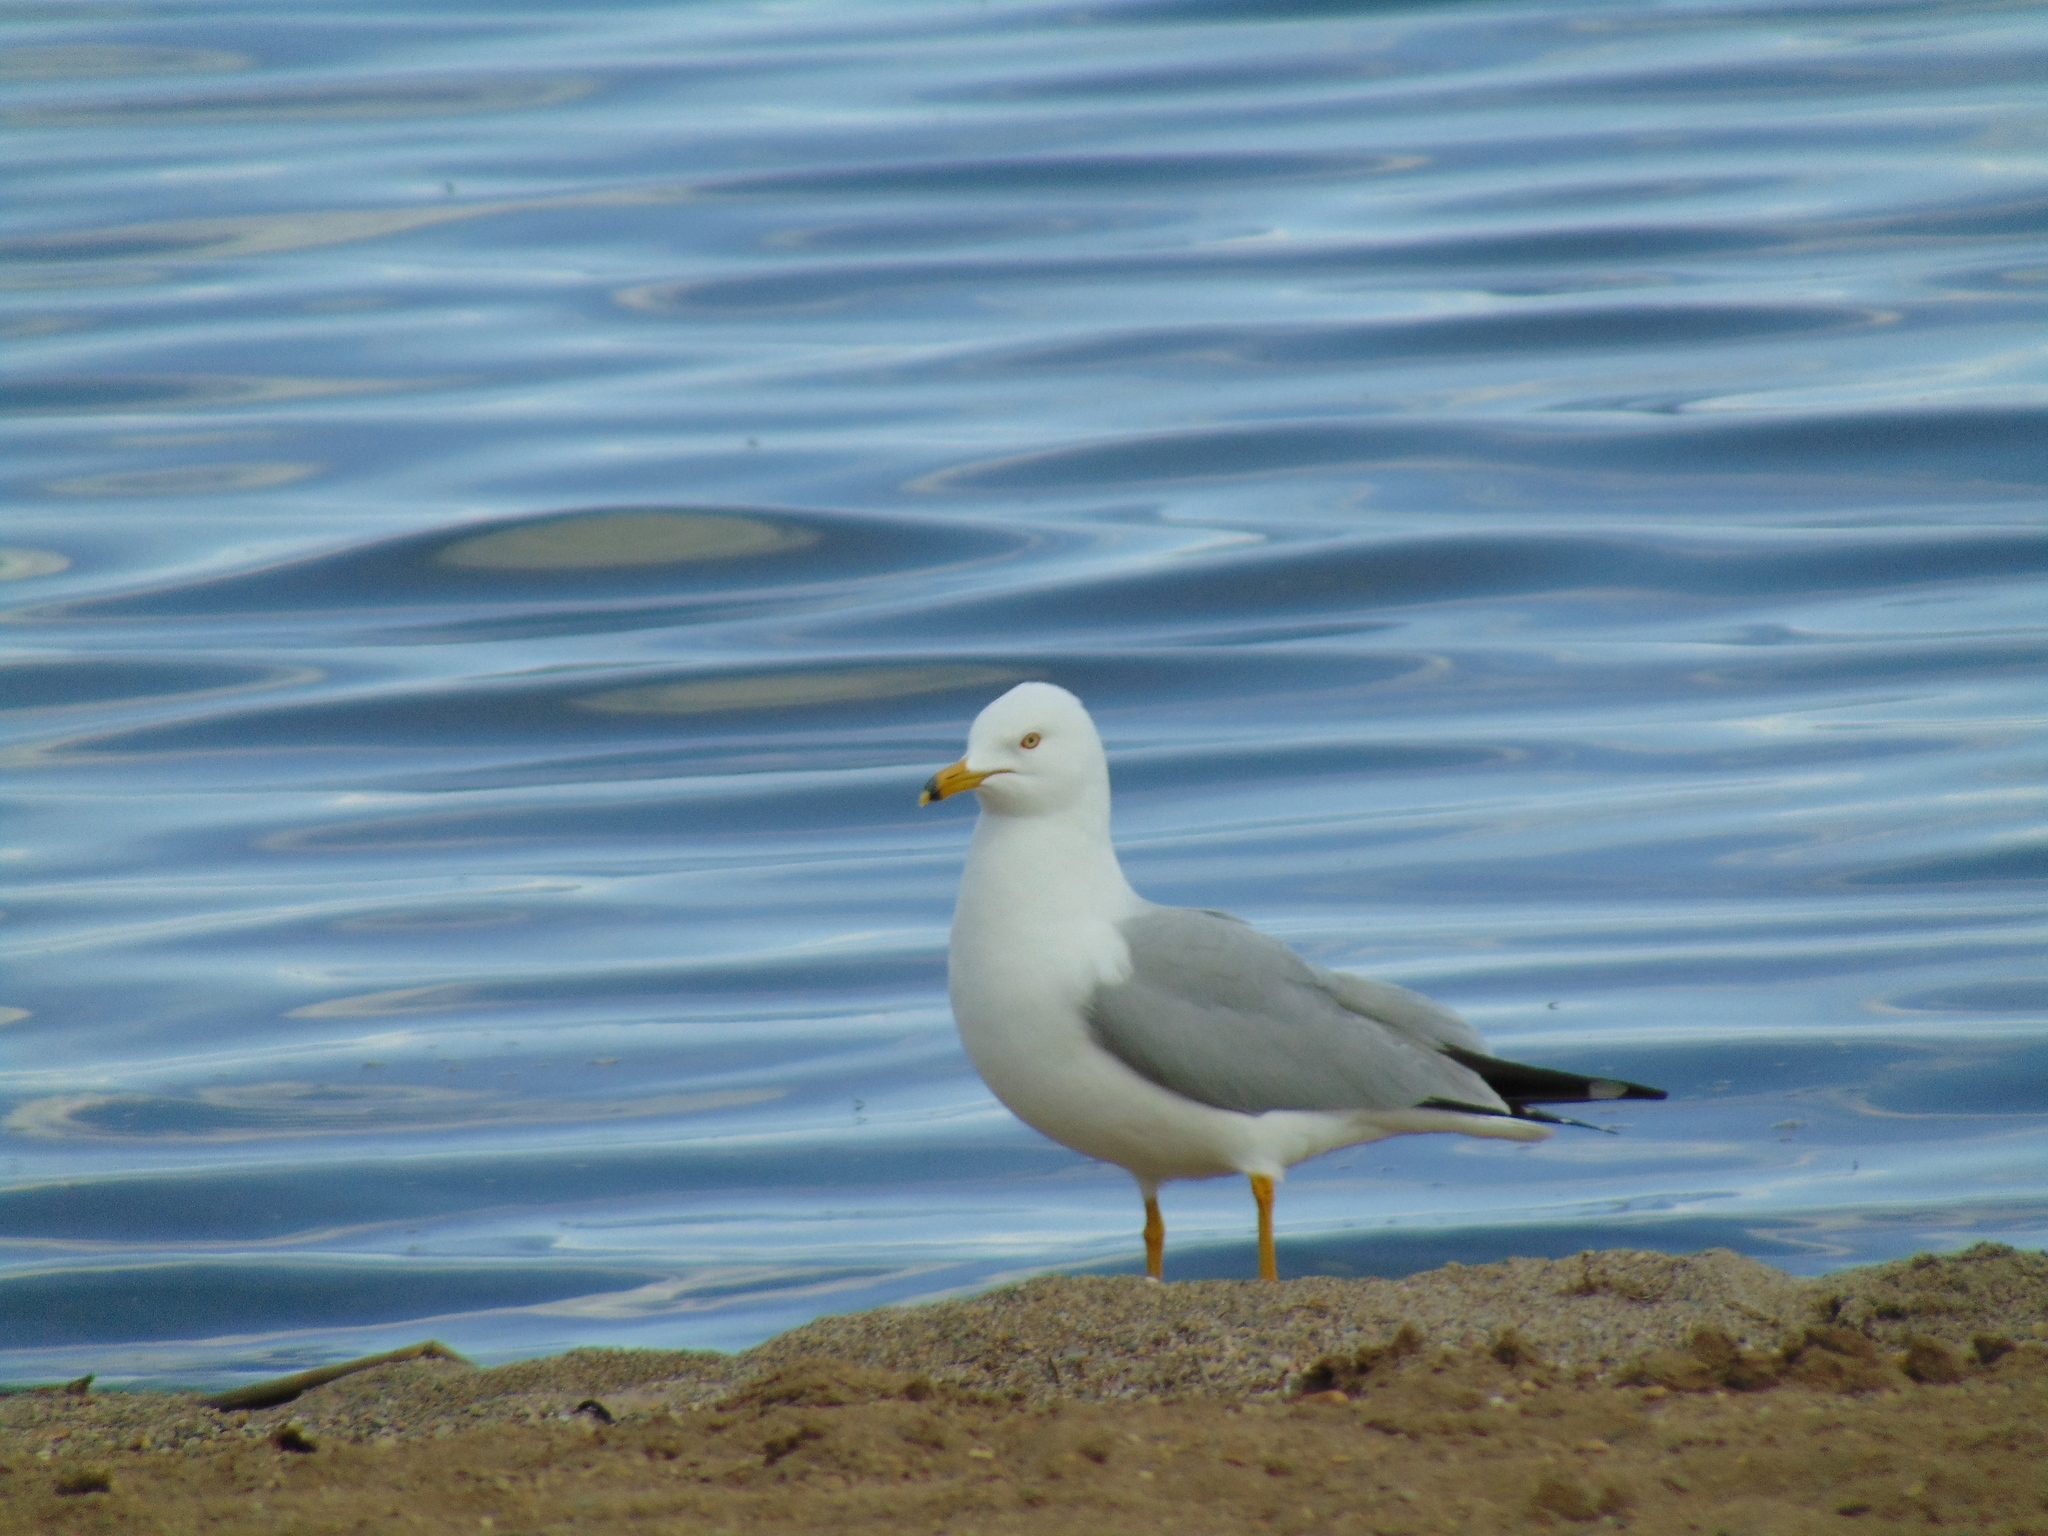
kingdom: Animalia
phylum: Chordata
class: Aves
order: Charadriiformes
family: Laridae
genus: Larus
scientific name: Larus delawarensis
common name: Ring-billed gull
